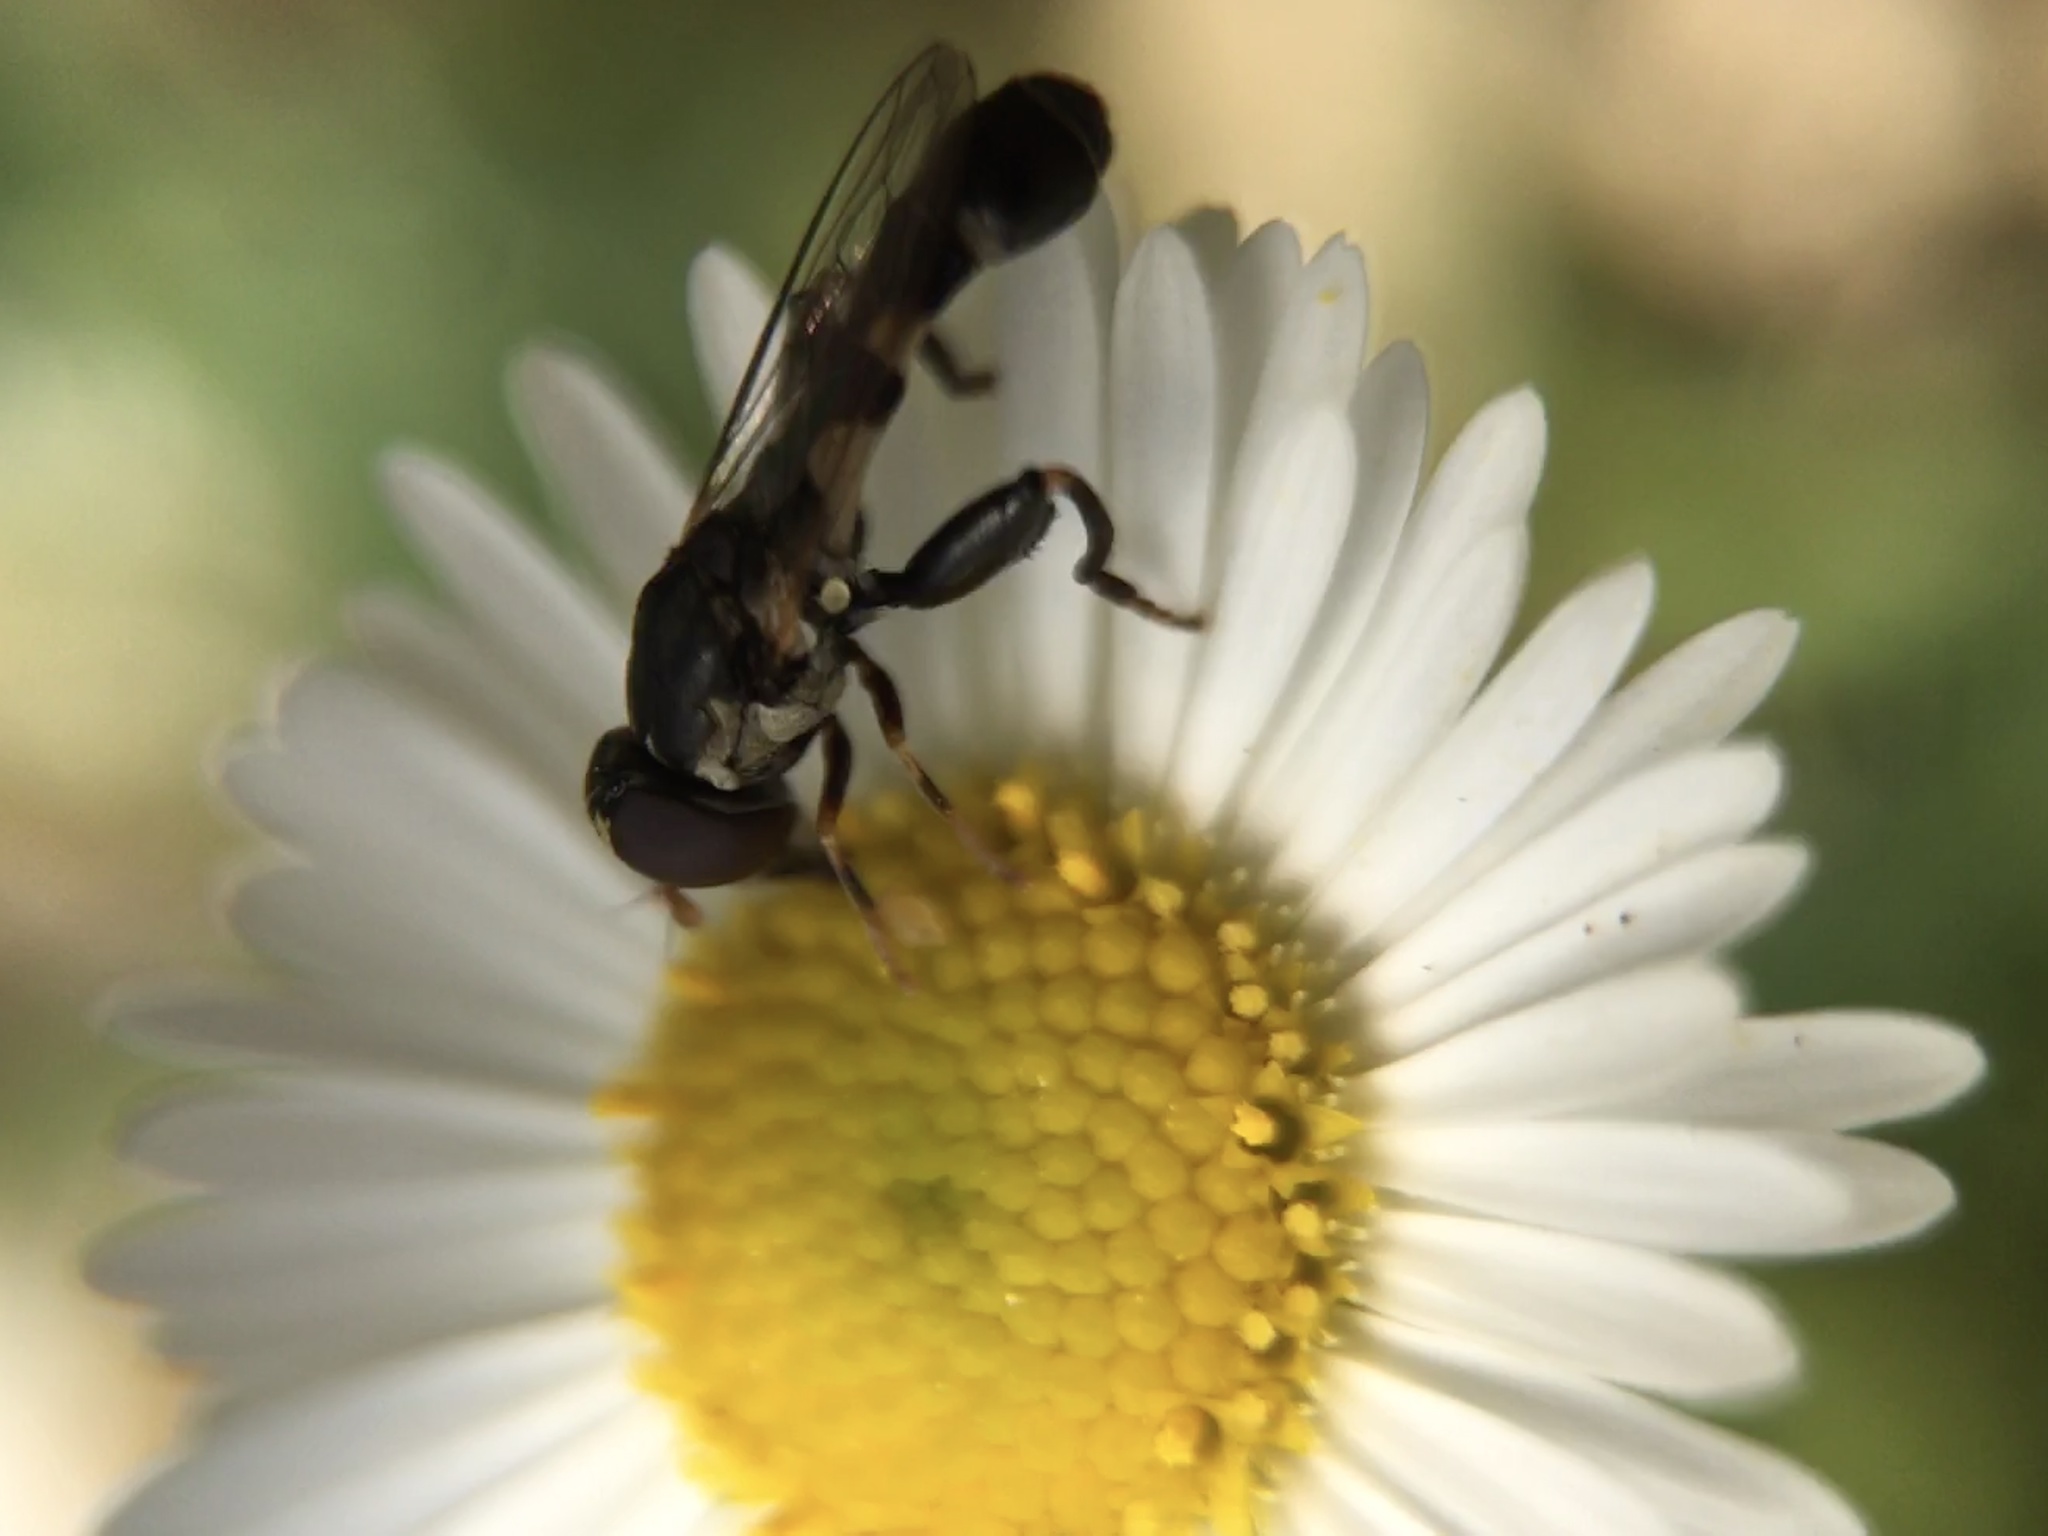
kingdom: Animalia
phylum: Arthropoda
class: Insecta
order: Diptera
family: Syrphidae
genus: Syritta
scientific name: Syritta pipiens
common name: Hover fly
